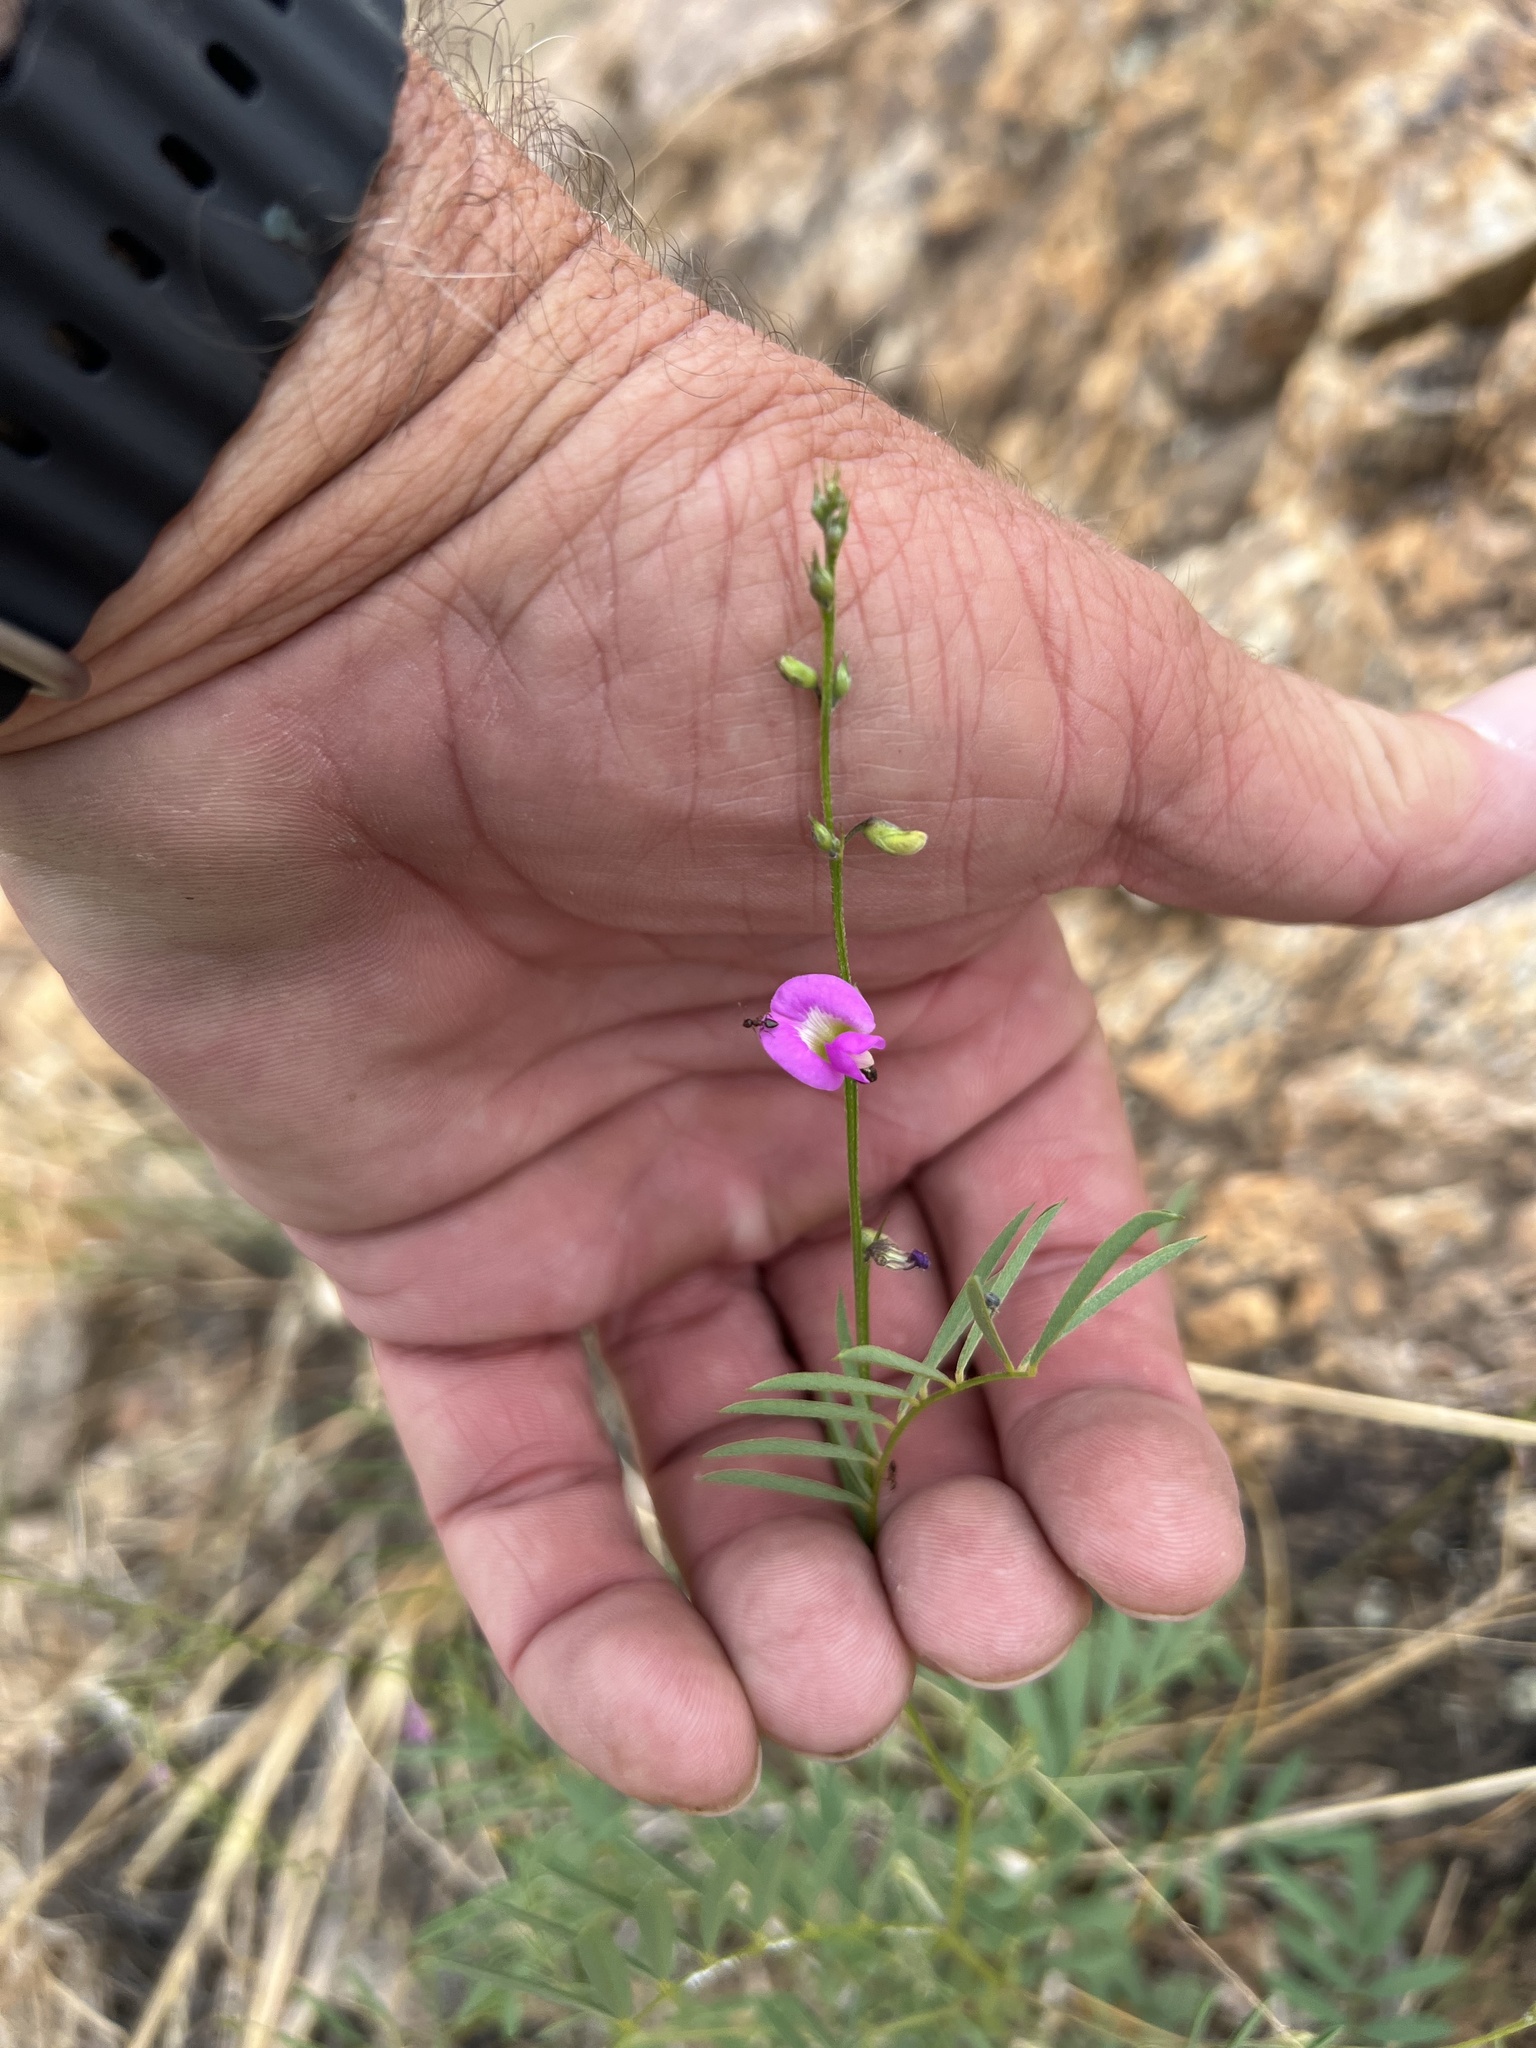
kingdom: Plantae
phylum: Tracheophyta
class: Magnoliopsida
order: Fabales
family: Fabaceae
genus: Tephrosia
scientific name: Tephrosia vicioides
